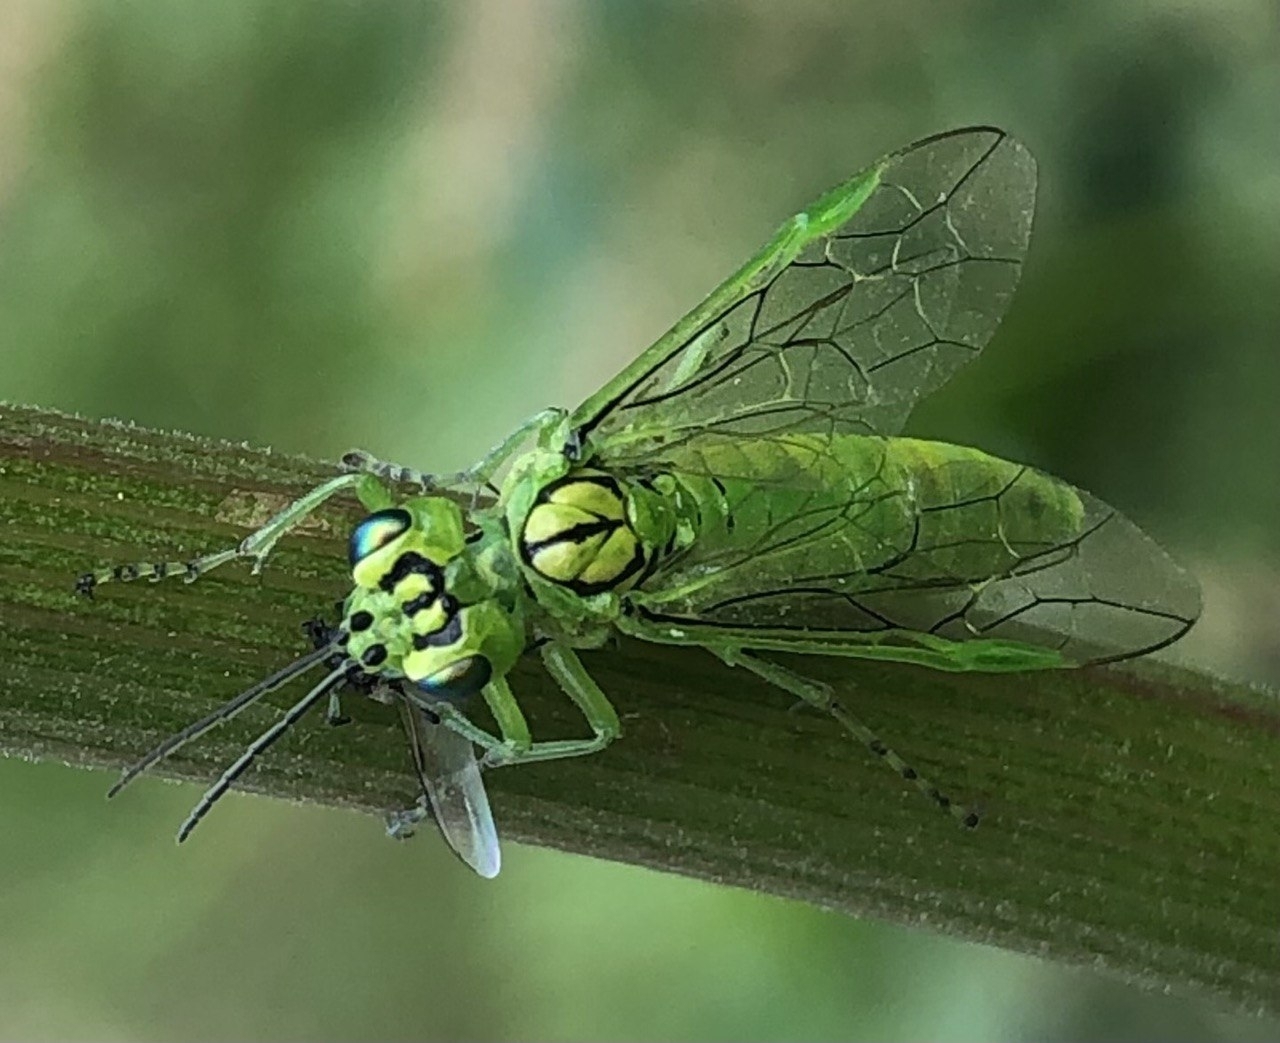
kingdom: Animalia
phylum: Arthropoda
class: Insecta
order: Hymenoptera
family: Tenthredinidae
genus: Rhogogaster
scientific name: Rhogogaster punctulata
